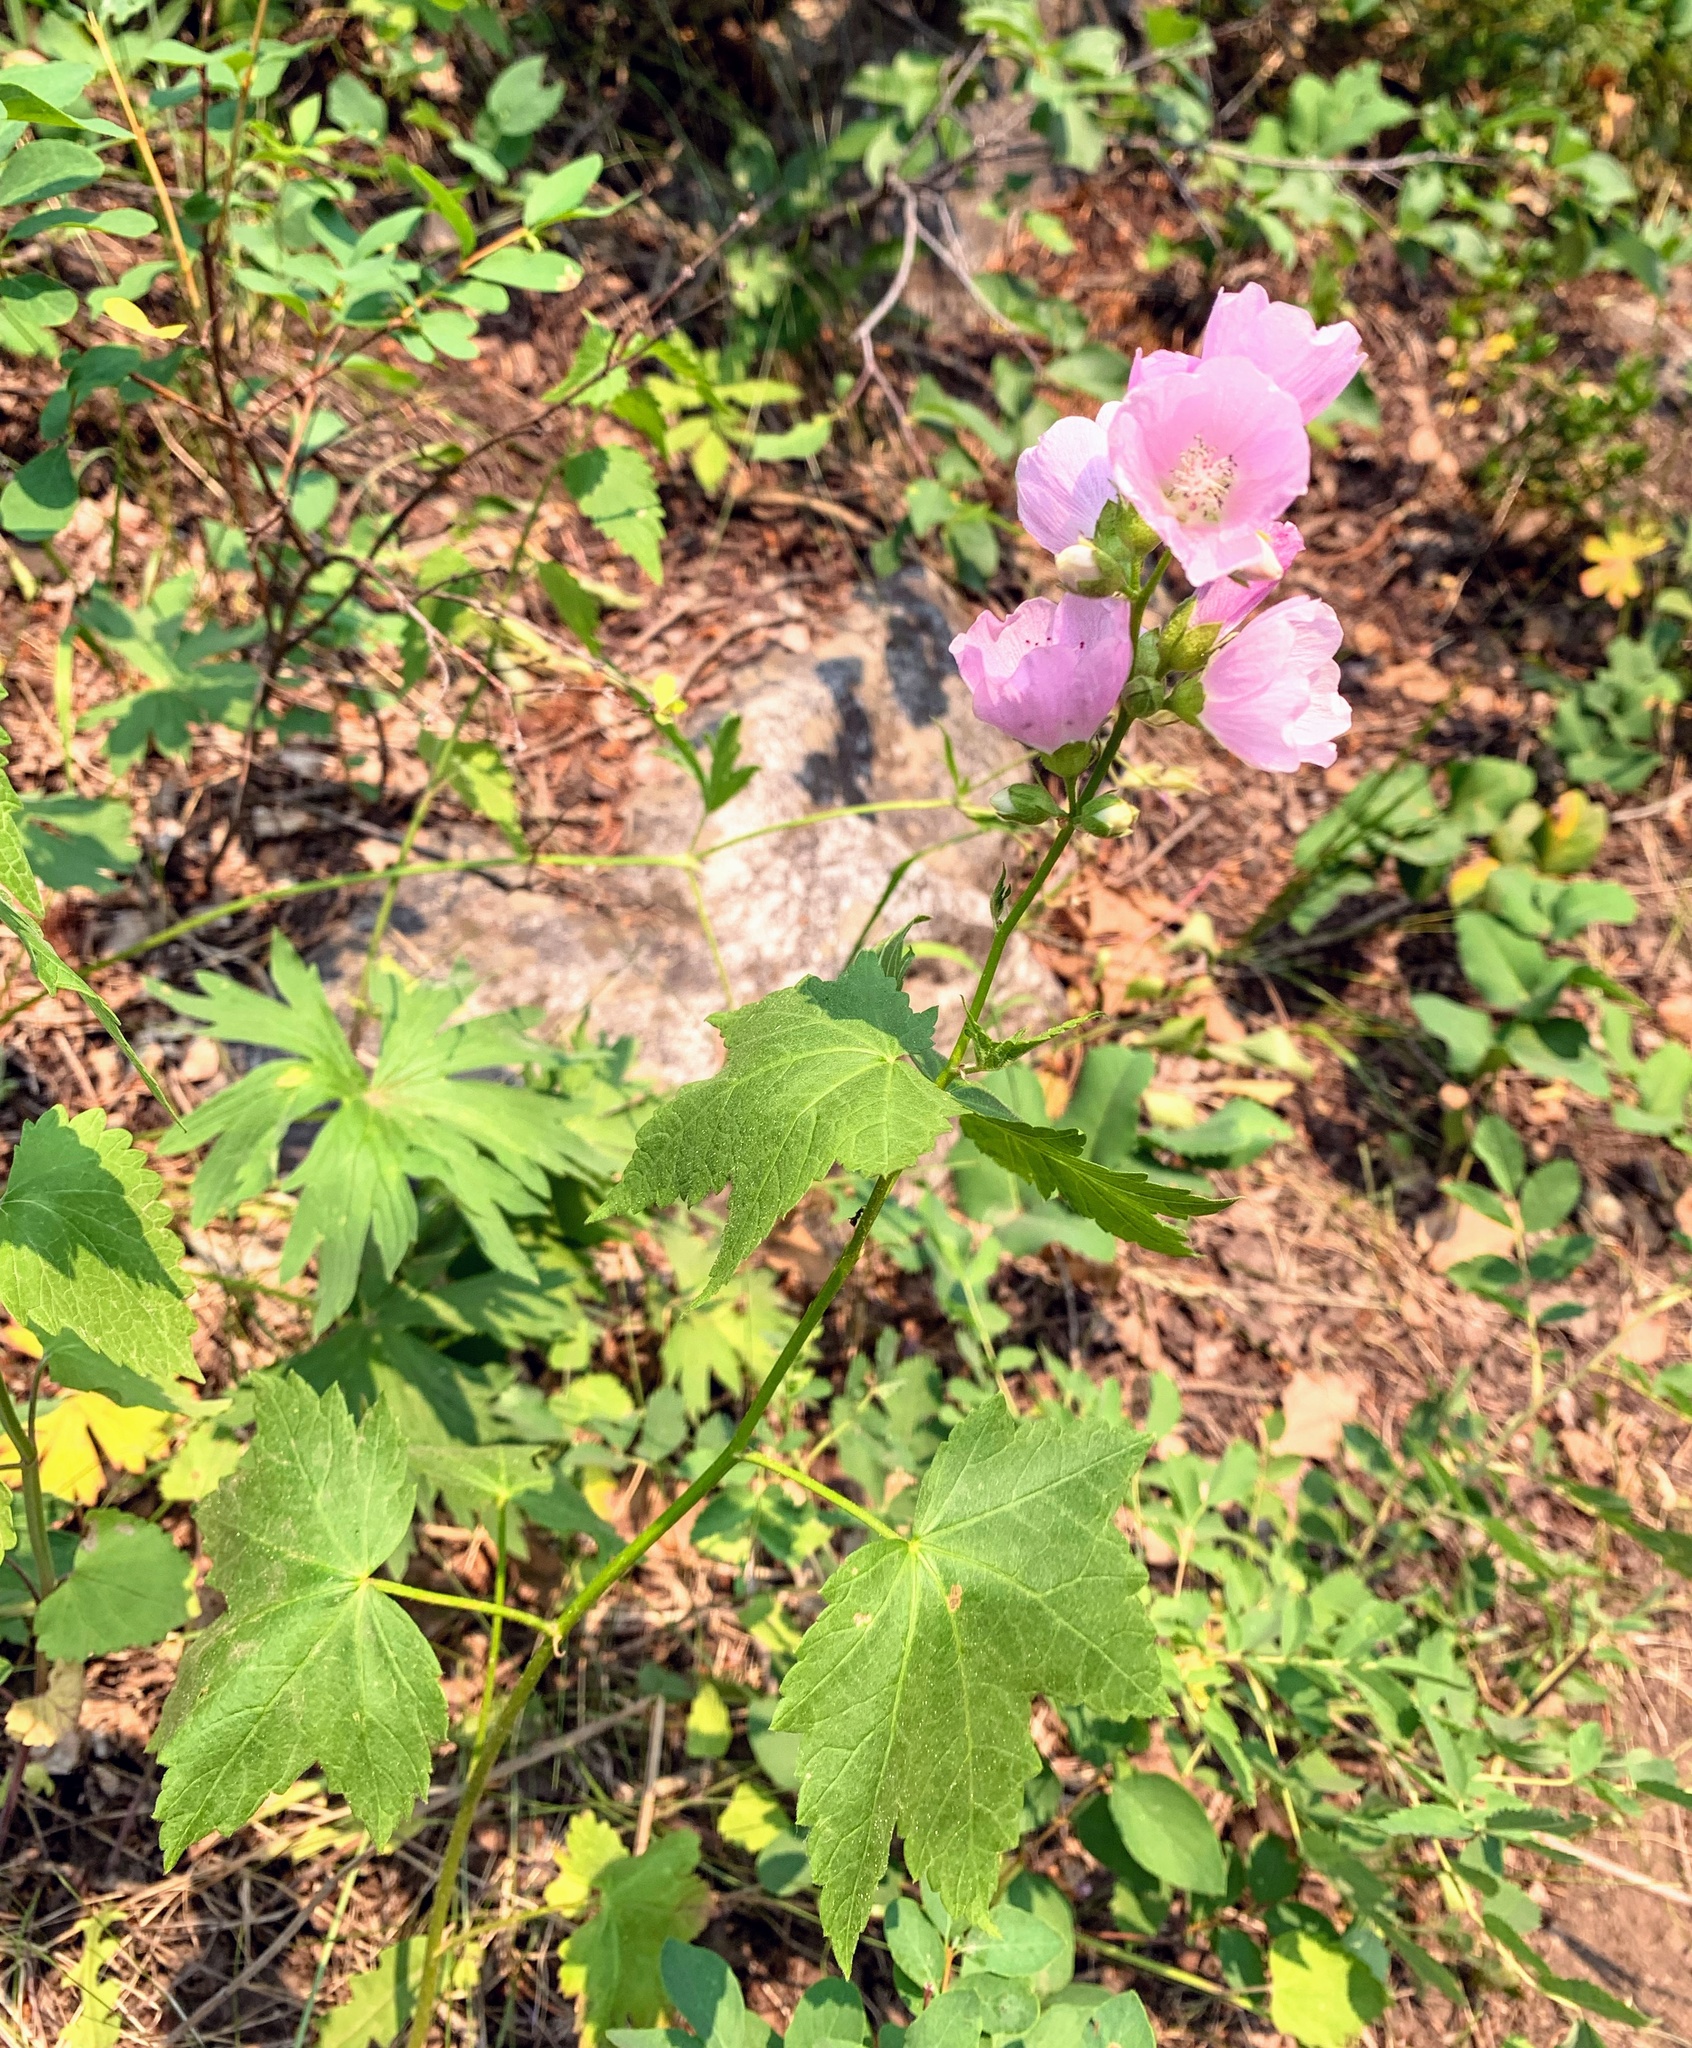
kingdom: Plantae
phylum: Tracheophyta
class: Magnoliopsida
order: Malvales
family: Malvaceae
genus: Iliamna
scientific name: Iliamna rivularis
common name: Wild hollyhock
